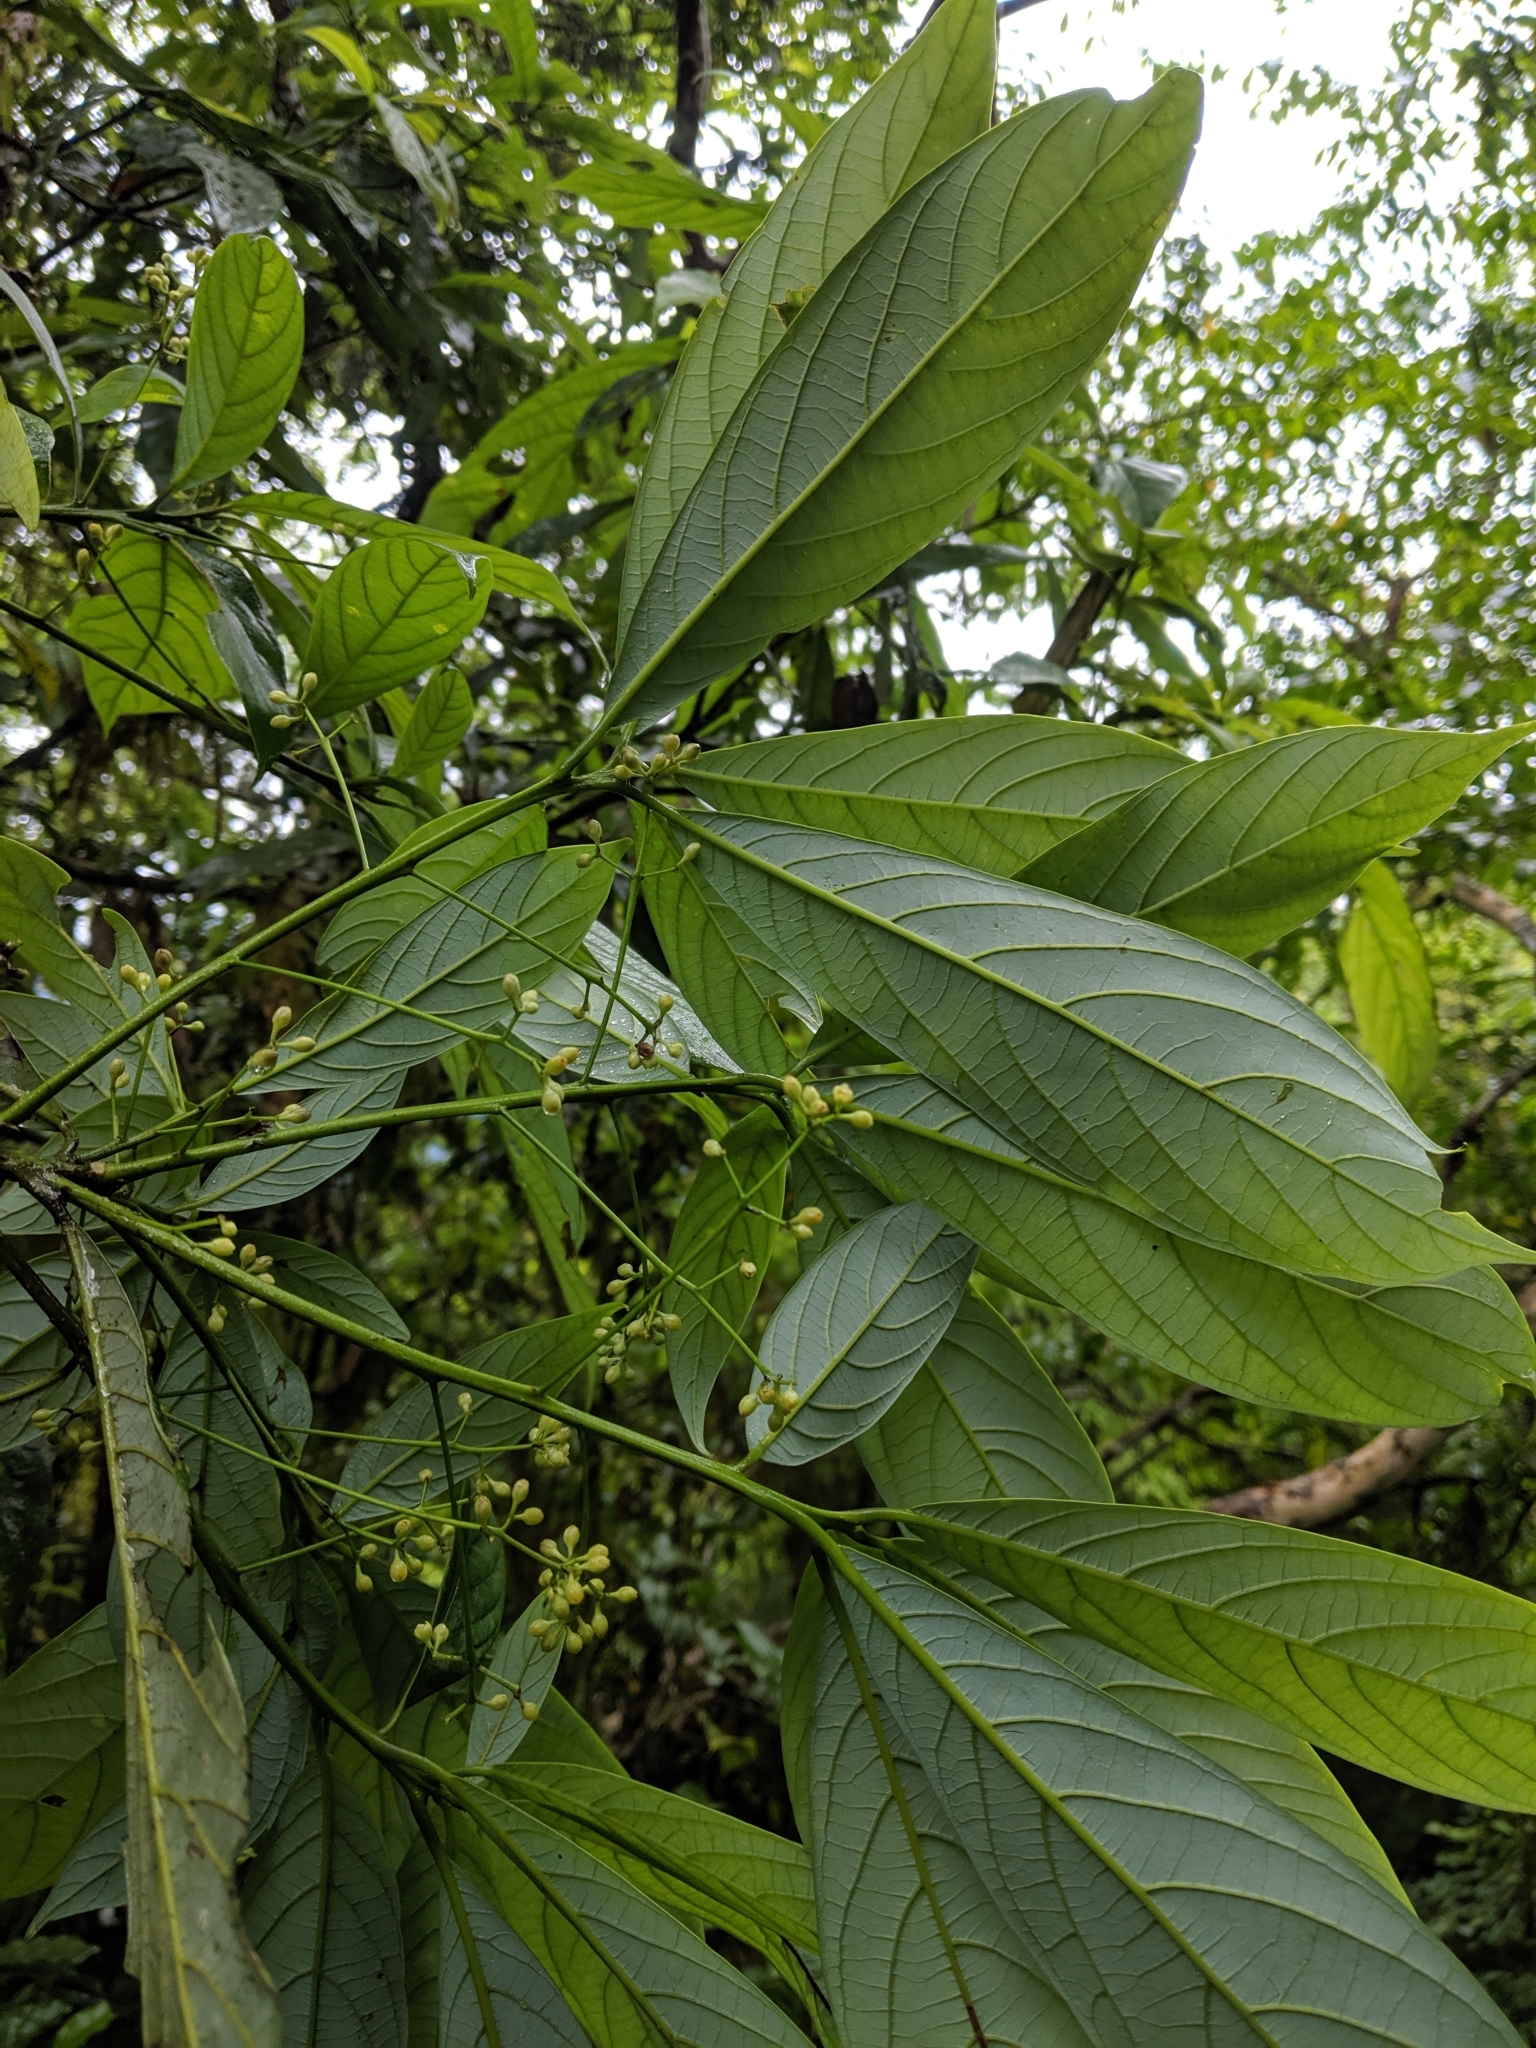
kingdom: Plantae
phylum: Tracheophyta
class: Magnoliopsida
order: Laurales
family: Lauraceae
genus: Phoebe
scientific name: Phoebe formosana
